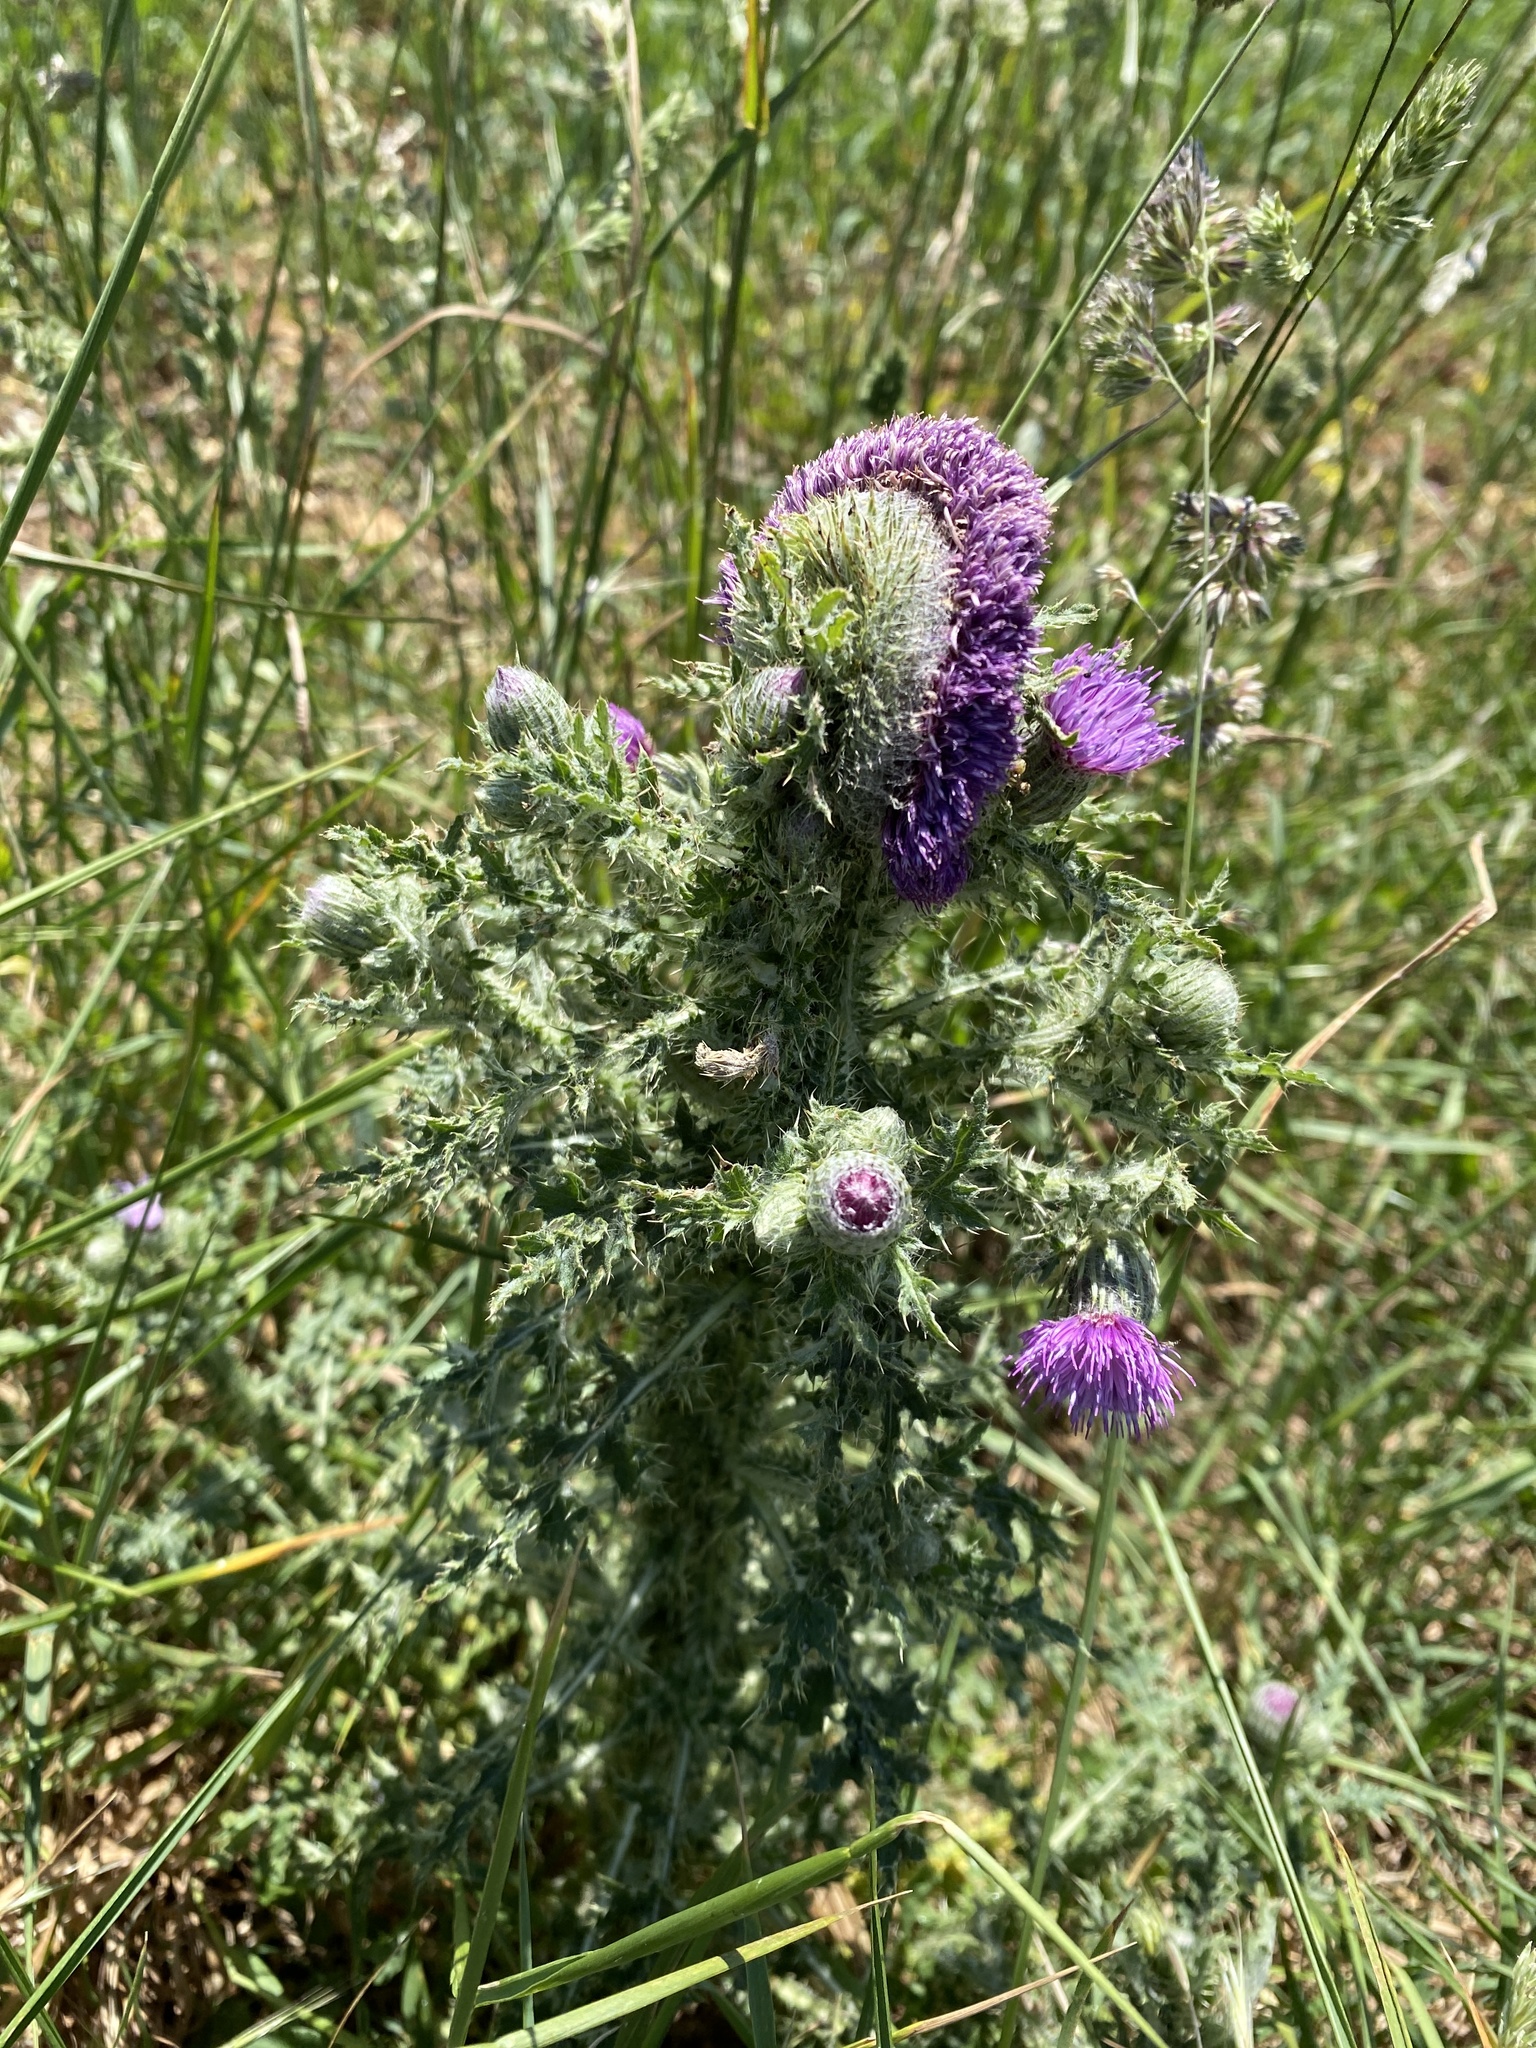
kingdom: Plantae
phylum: Tracheophyta
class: Magnoliopsida
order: Asterales
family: Asteraceae
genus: Carduus
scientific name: Carduus nutans
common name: Musk thistle
